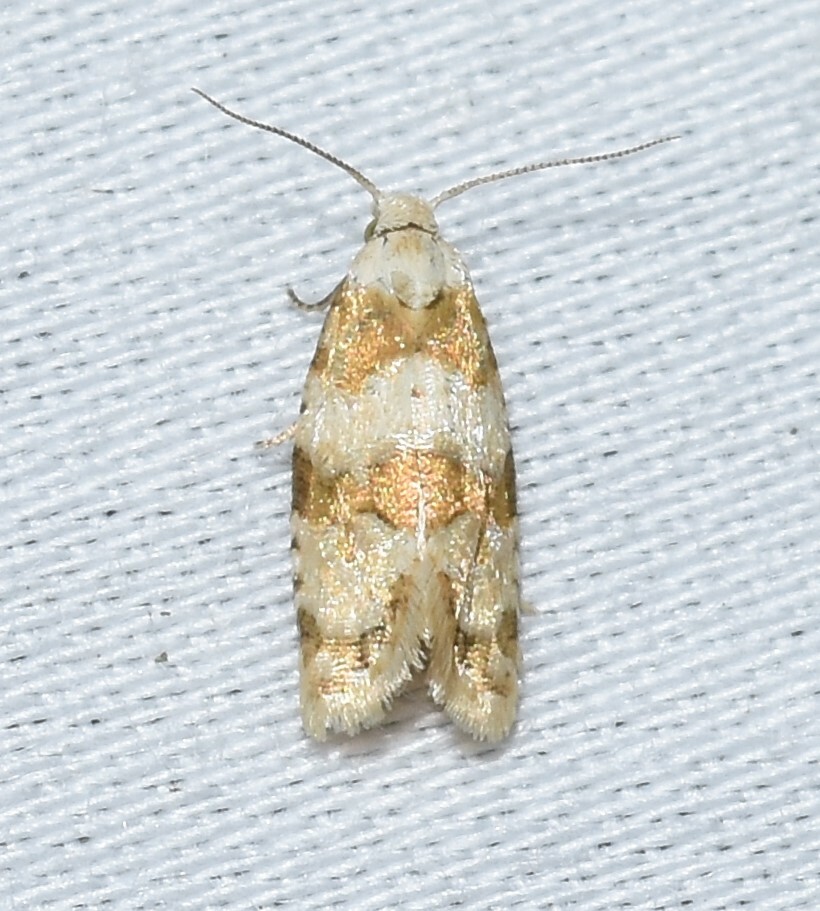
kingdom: Animalia
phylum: Arthropoda
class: Insecta
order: Lepidoptera
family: Tortricidae
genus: Aethes
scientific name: Aethes argentilimitana
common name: Silver-bordered aethes
